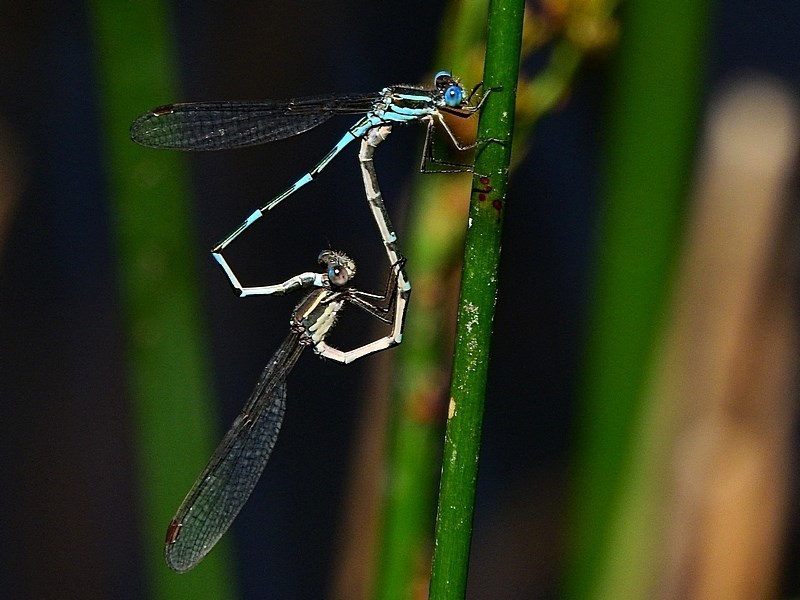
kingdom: Animalia
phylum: Arthropoda
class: Insecta
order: Odonata
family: Lestidae
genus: Austrolestes
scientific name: Austrolestes leda
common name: Wandering ringtail
